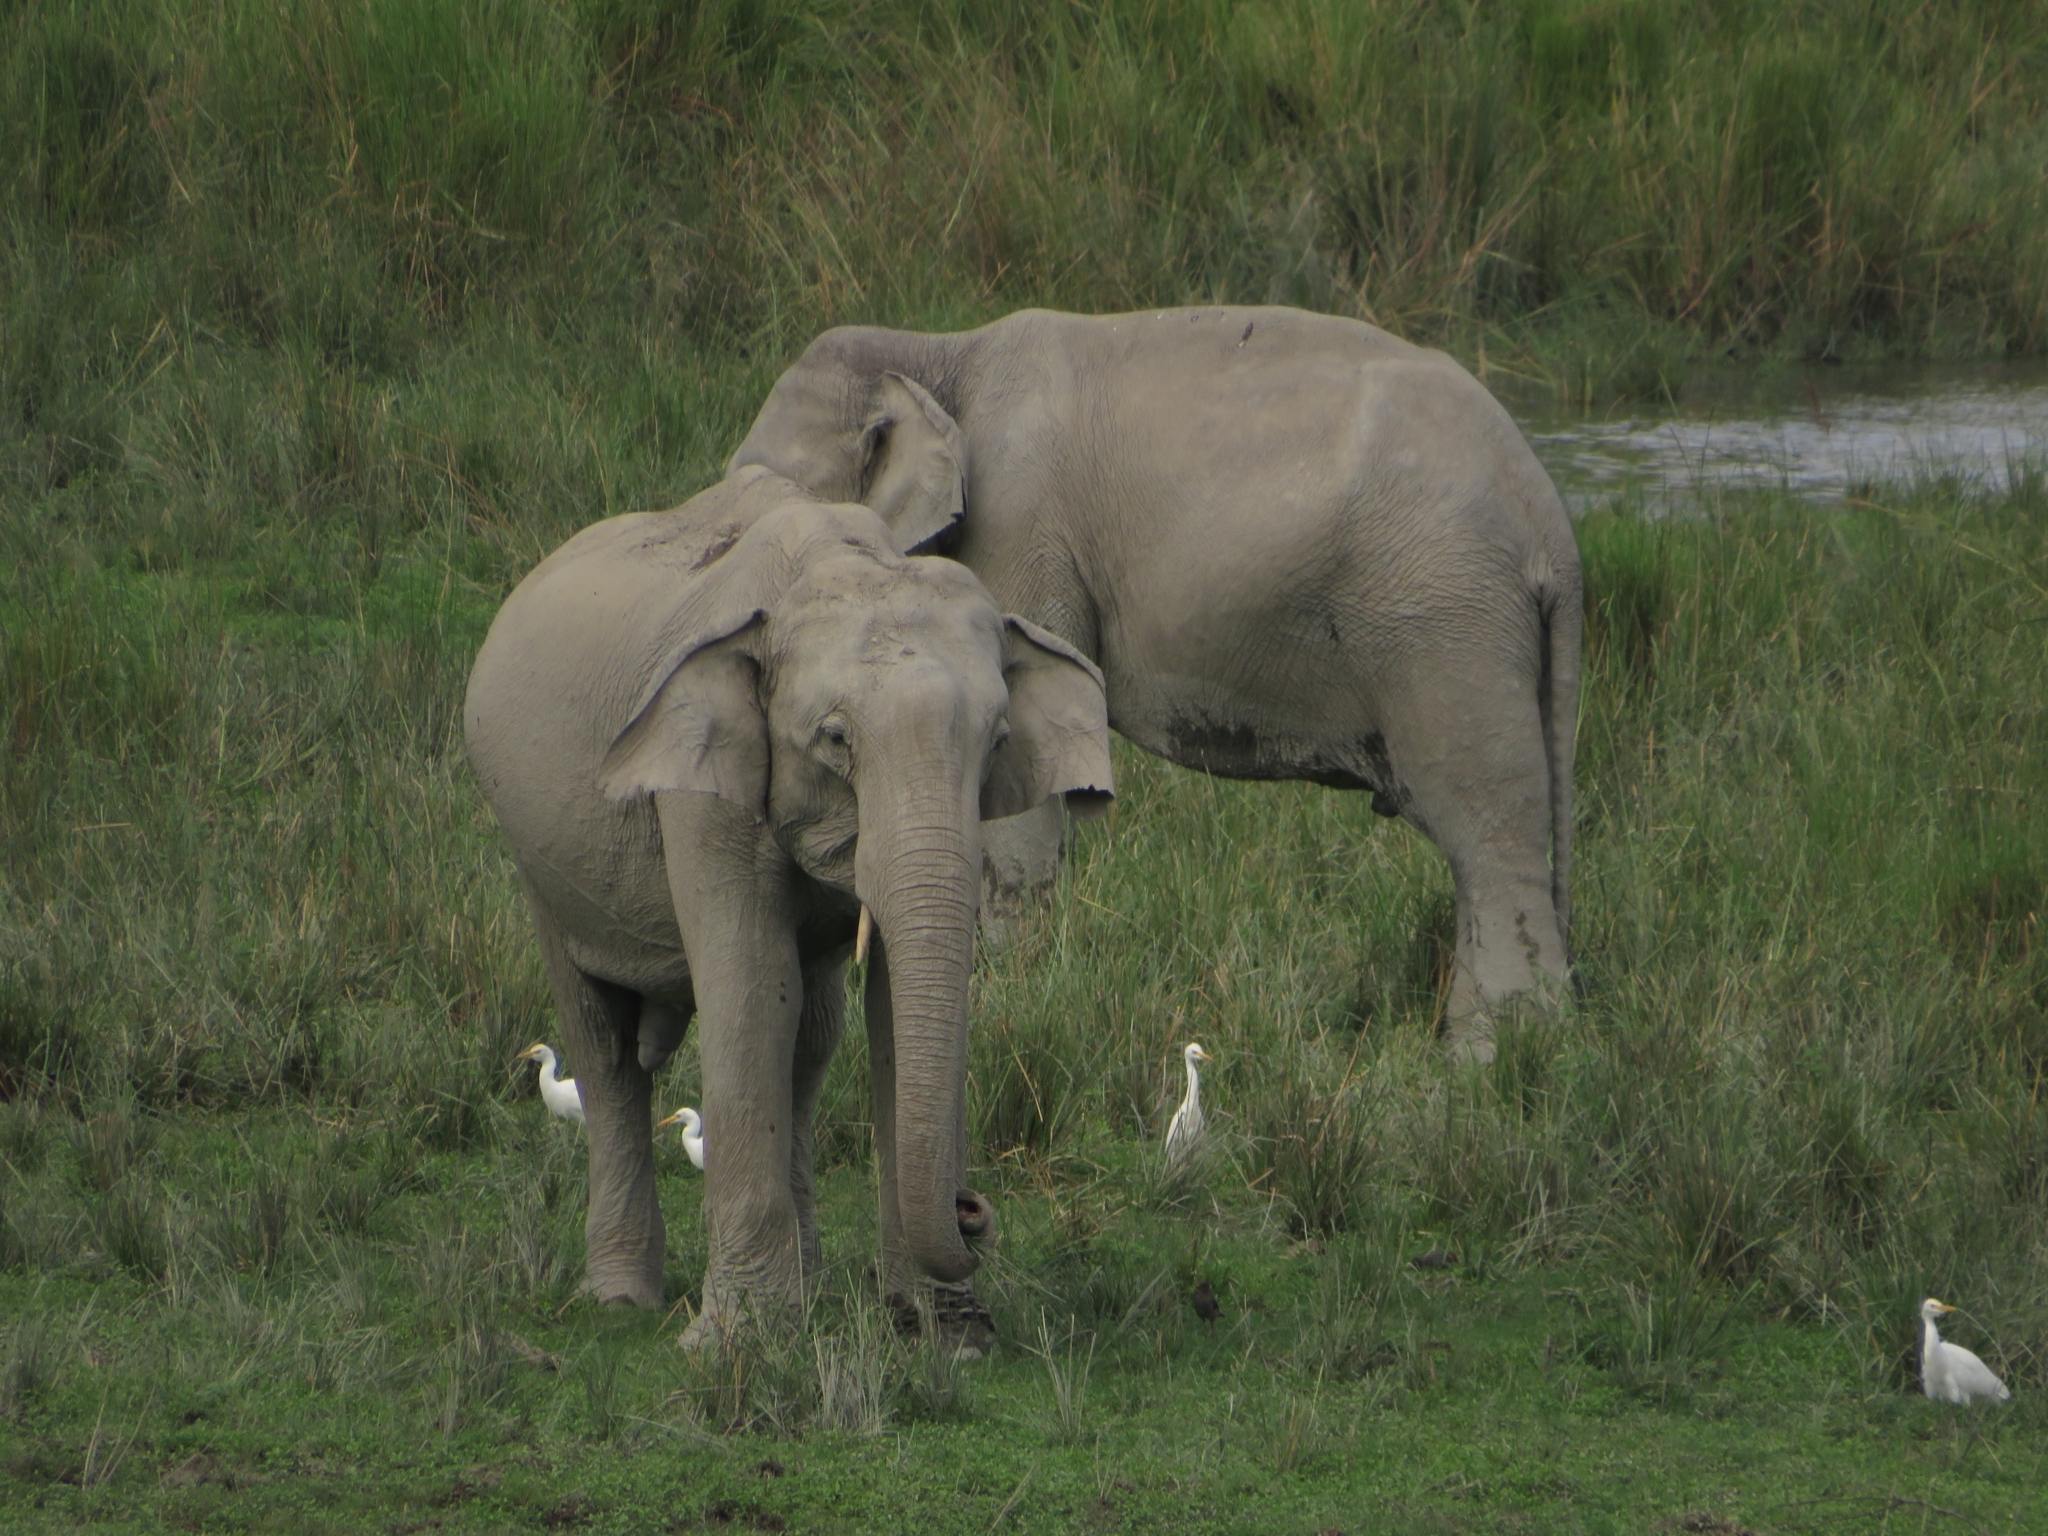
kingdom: Animalia
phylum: Chordata
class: Mammalia
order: Proboscidea
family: Elephantidae
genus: Elephas
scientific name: Elephas maximus
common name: Asian elephant
